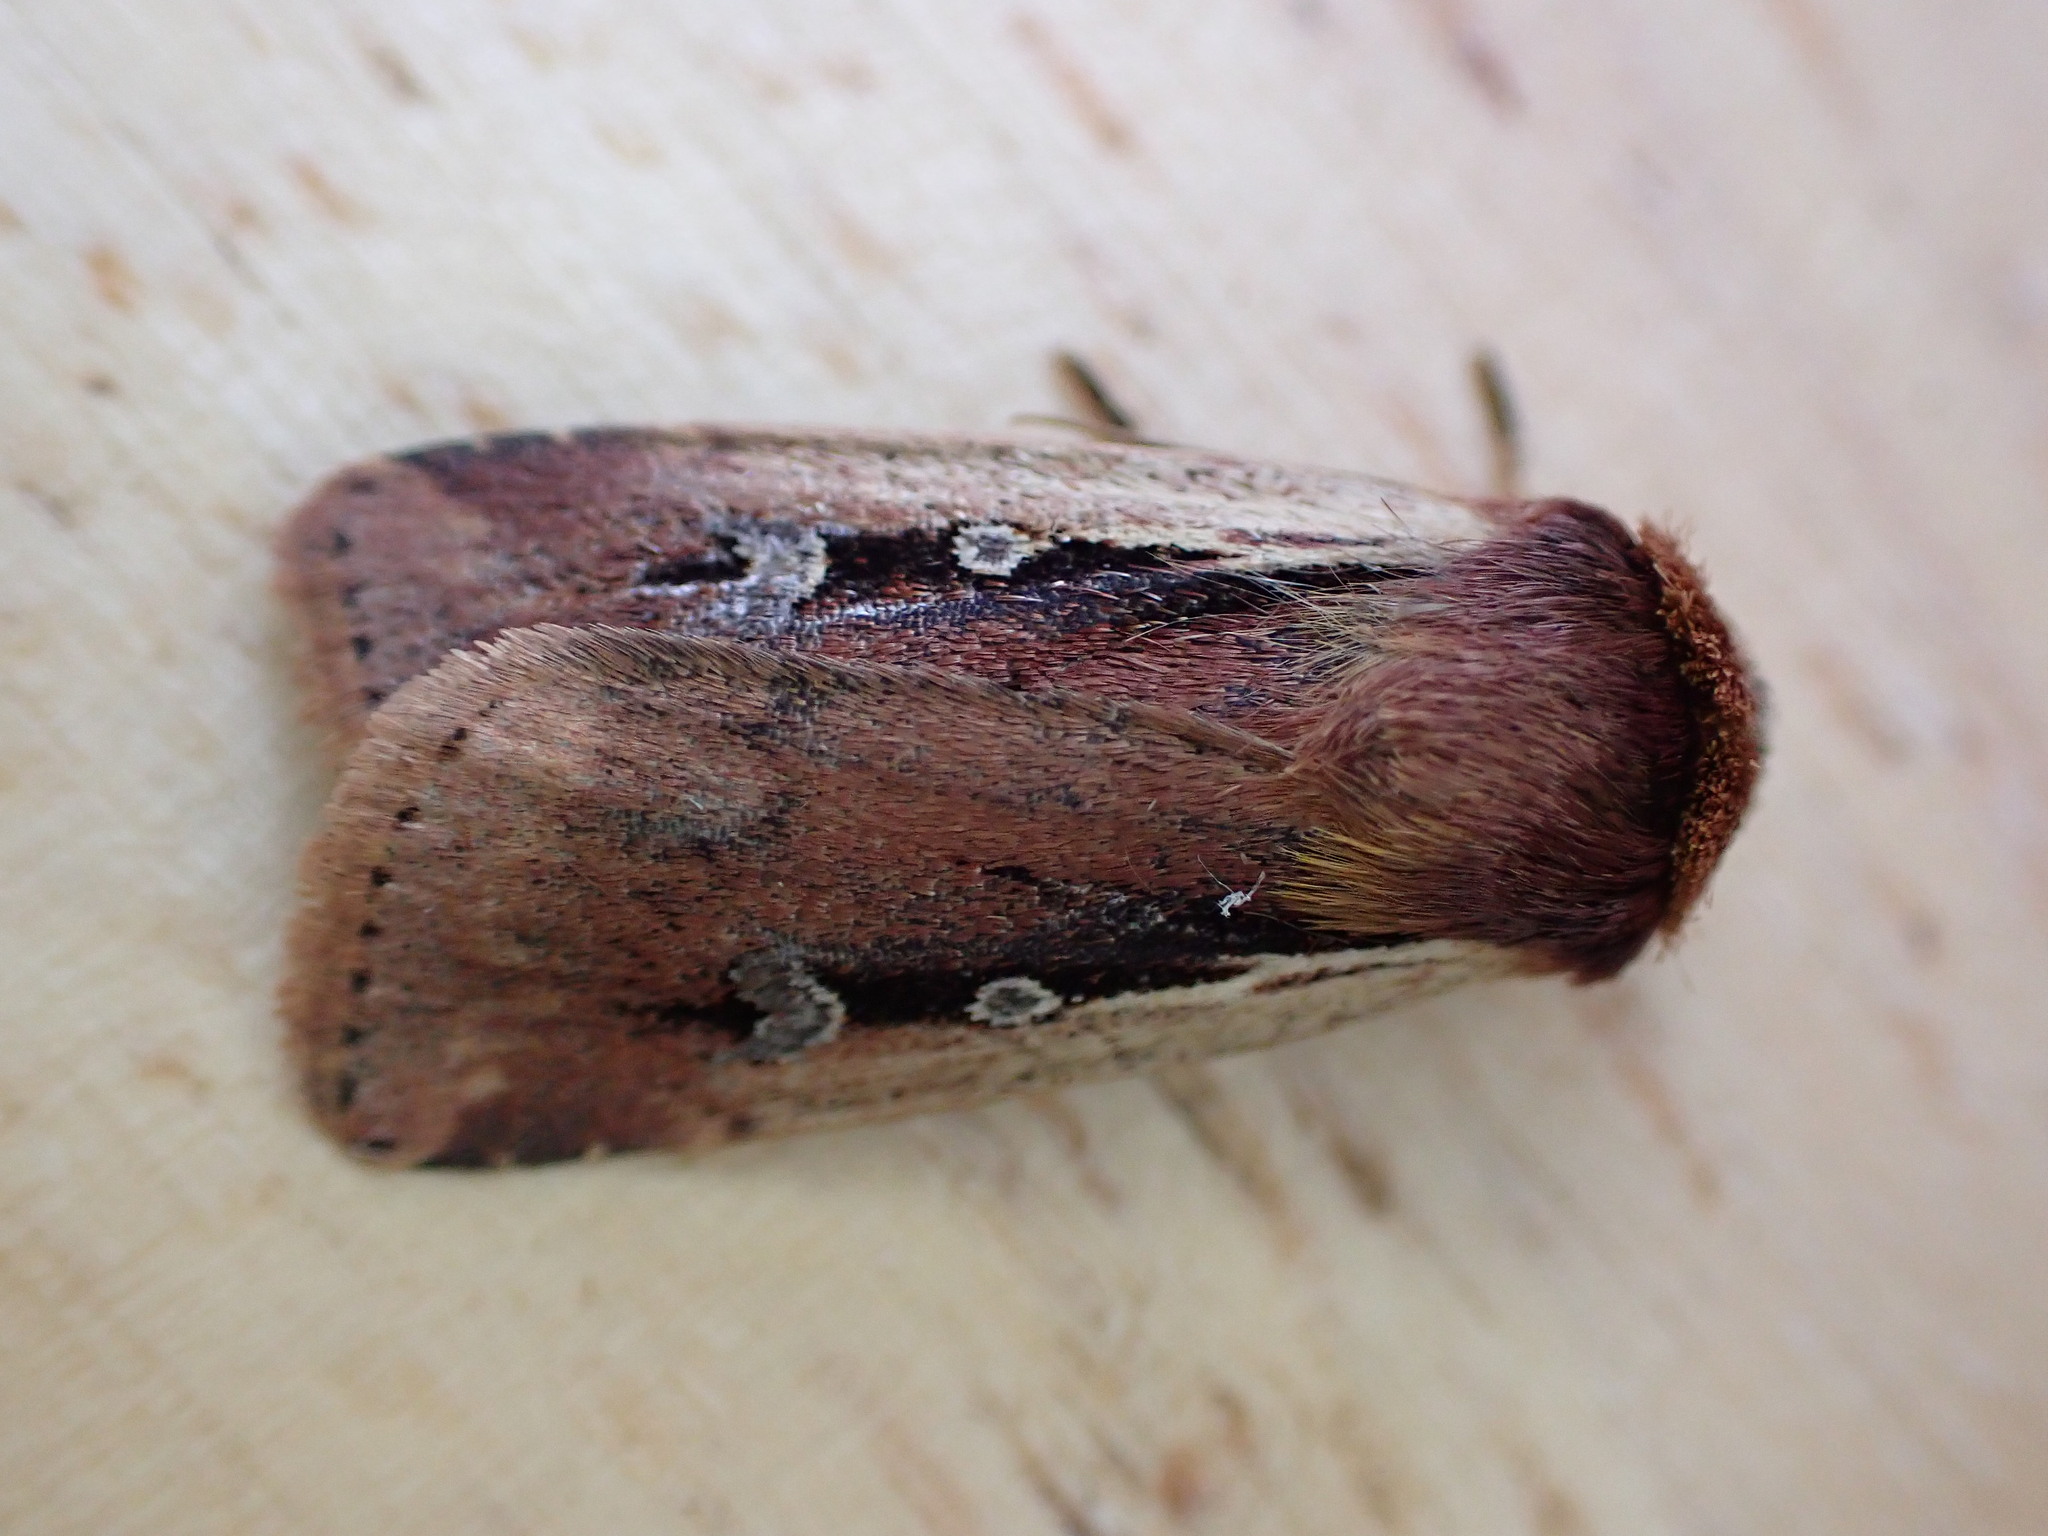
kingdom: Animalia
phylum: Arthropoda
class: Insecta
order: Lepidoptera
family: Noctuidae
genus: Ochropleura
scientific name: Ochropleura plecta
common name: Flame shoulder
